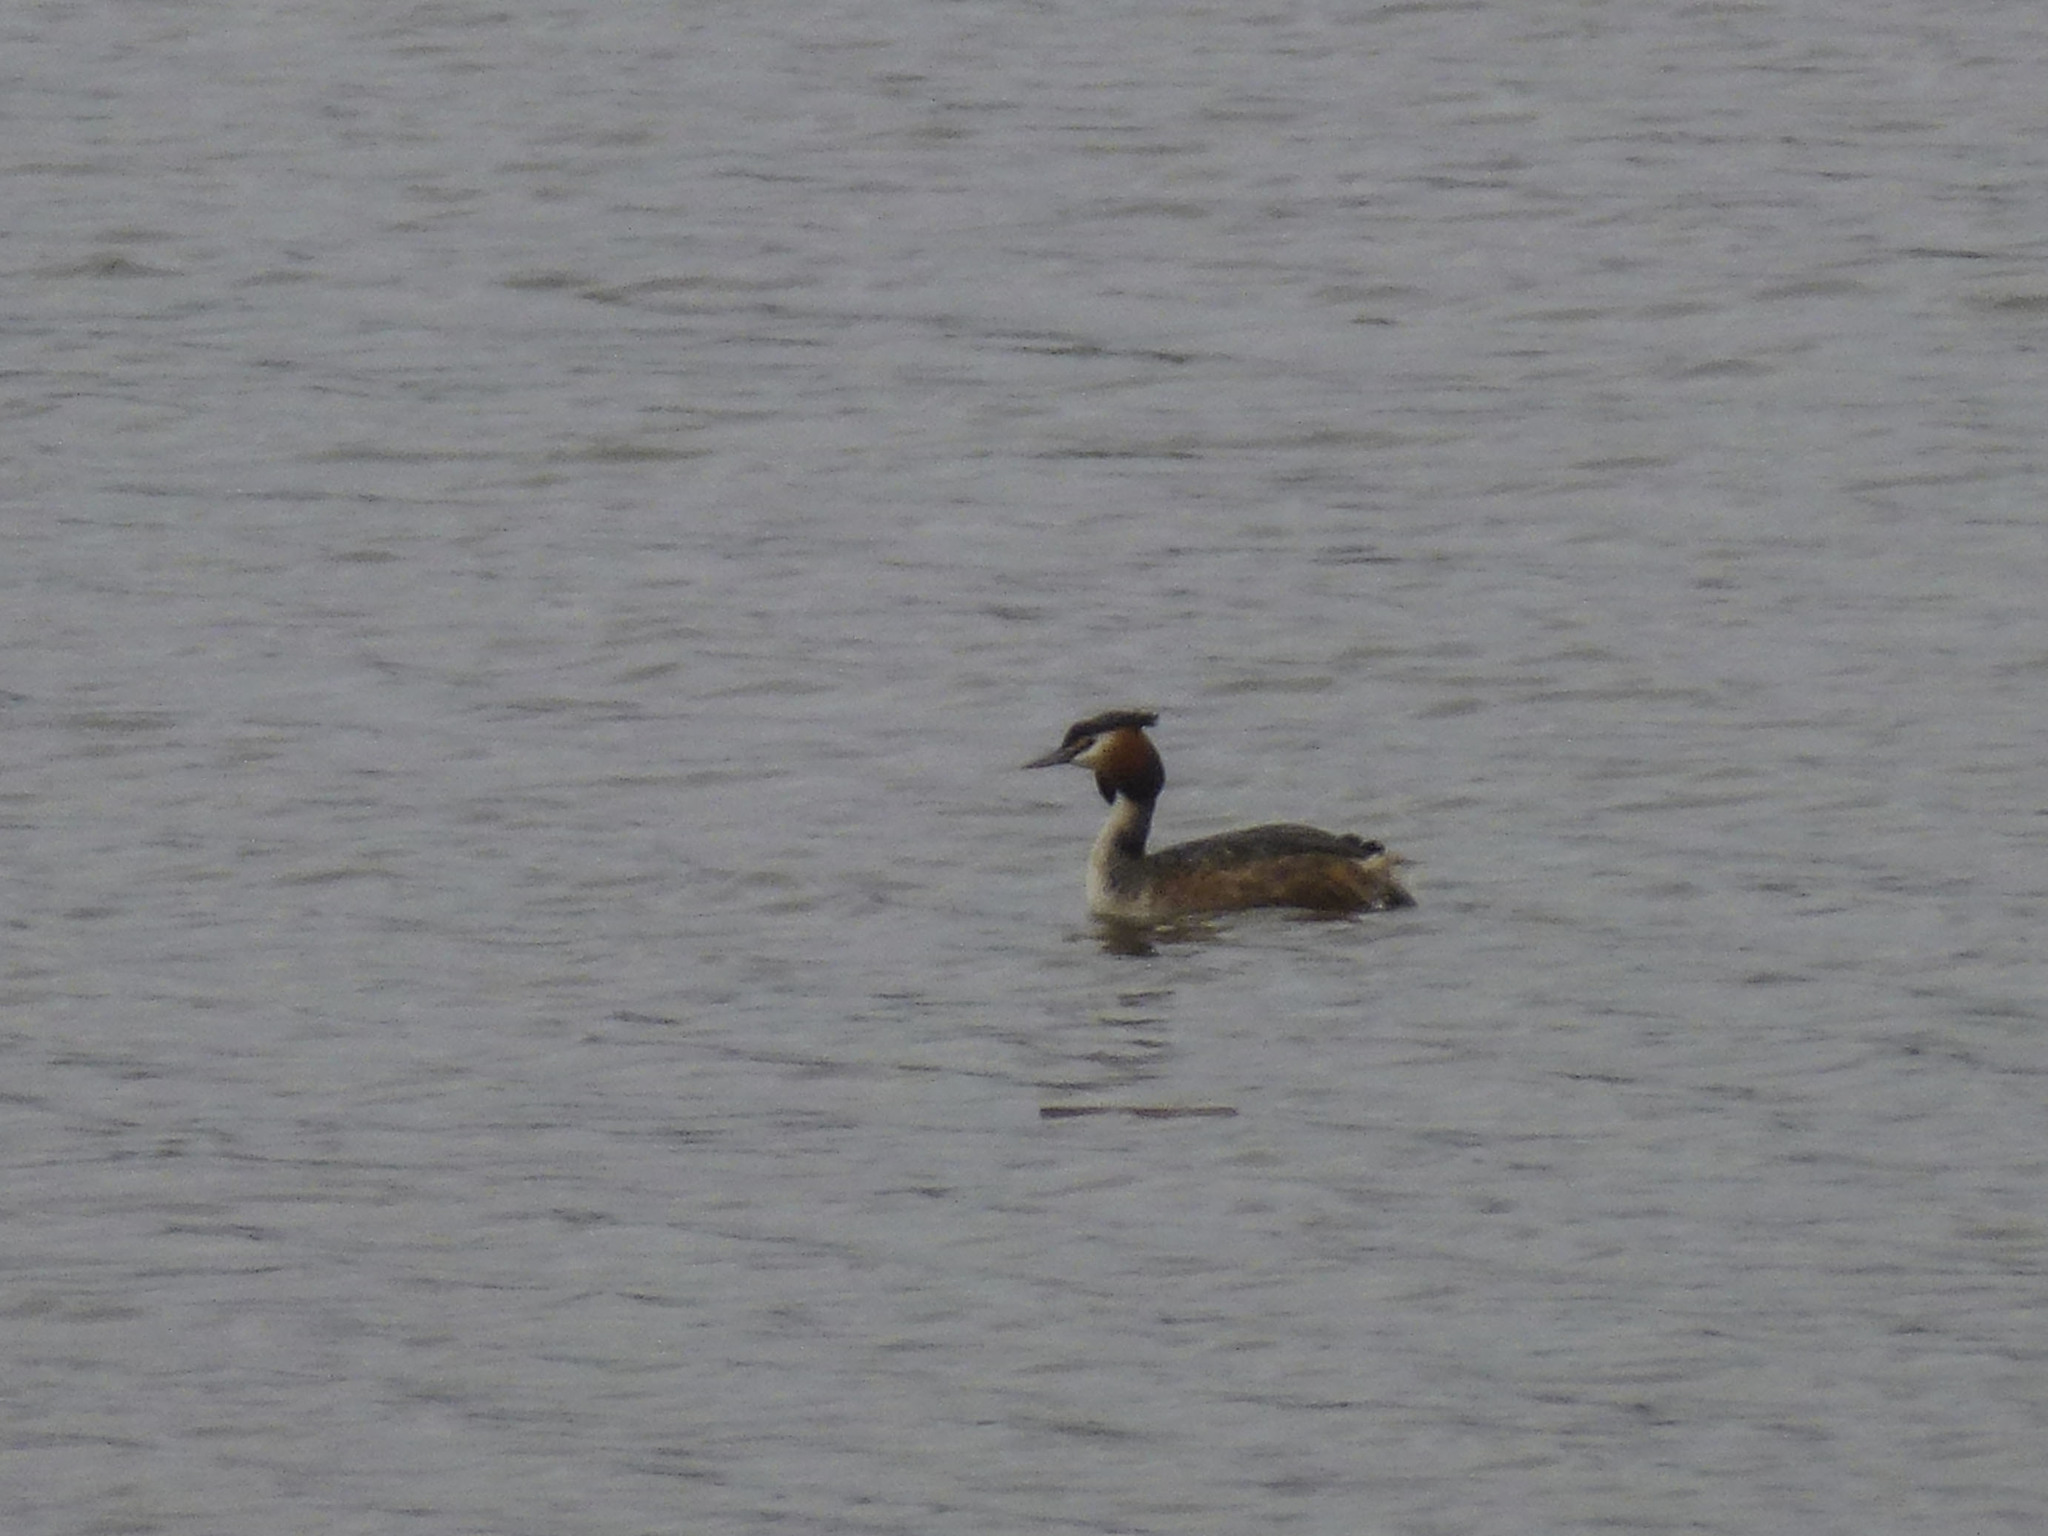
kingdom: Animalia
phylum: Chordata
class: Aves
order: Podicipediformes
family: Podicipedidae
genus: Podiceps
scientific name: Podiceps cristatus
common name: Great crested grebe
